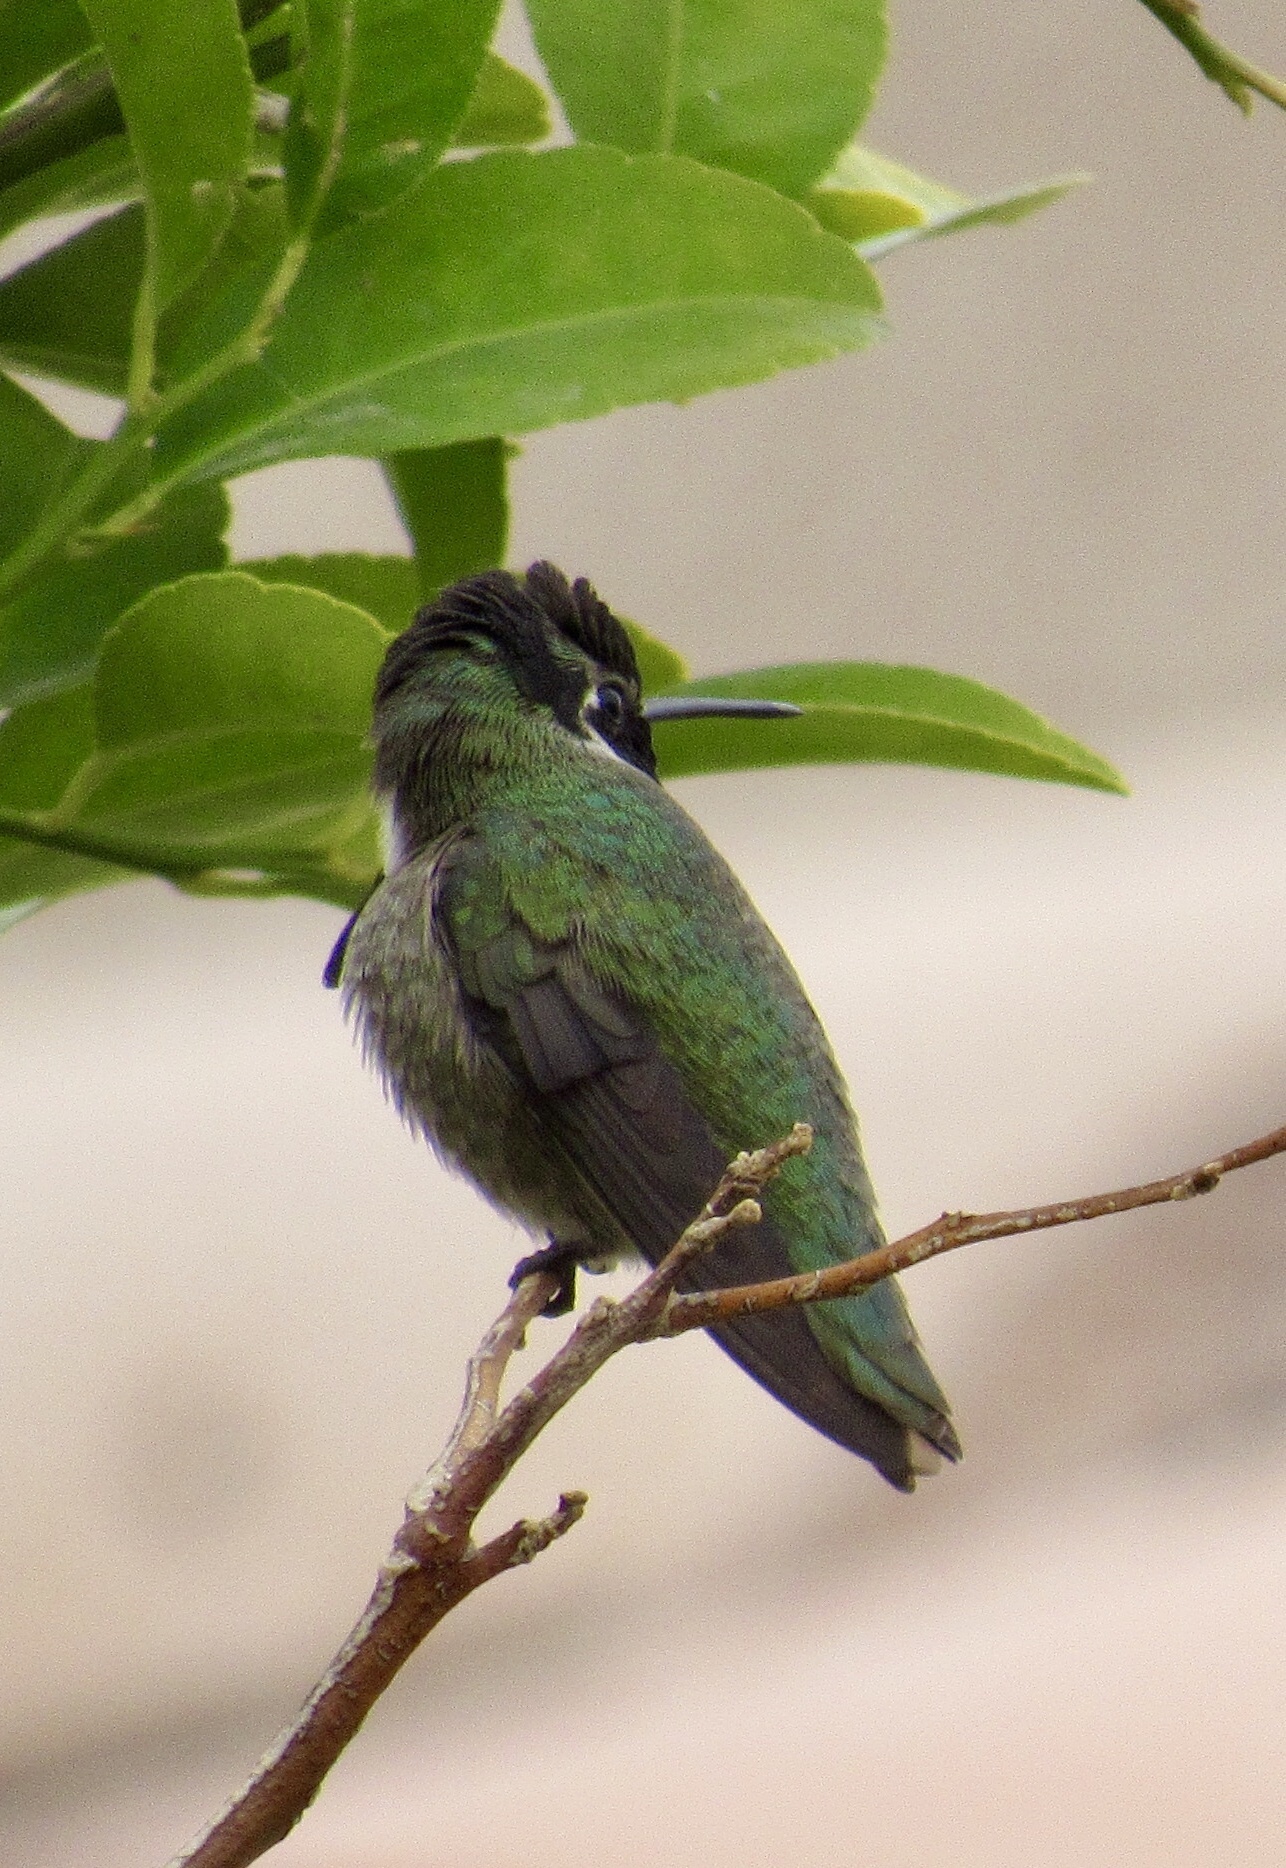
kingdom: Animalia
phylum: Chordata
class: Aves
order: Apodiformes
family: Trochilidae
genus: Calypte
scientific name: Calypte costae
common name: Costa's hummingbird
